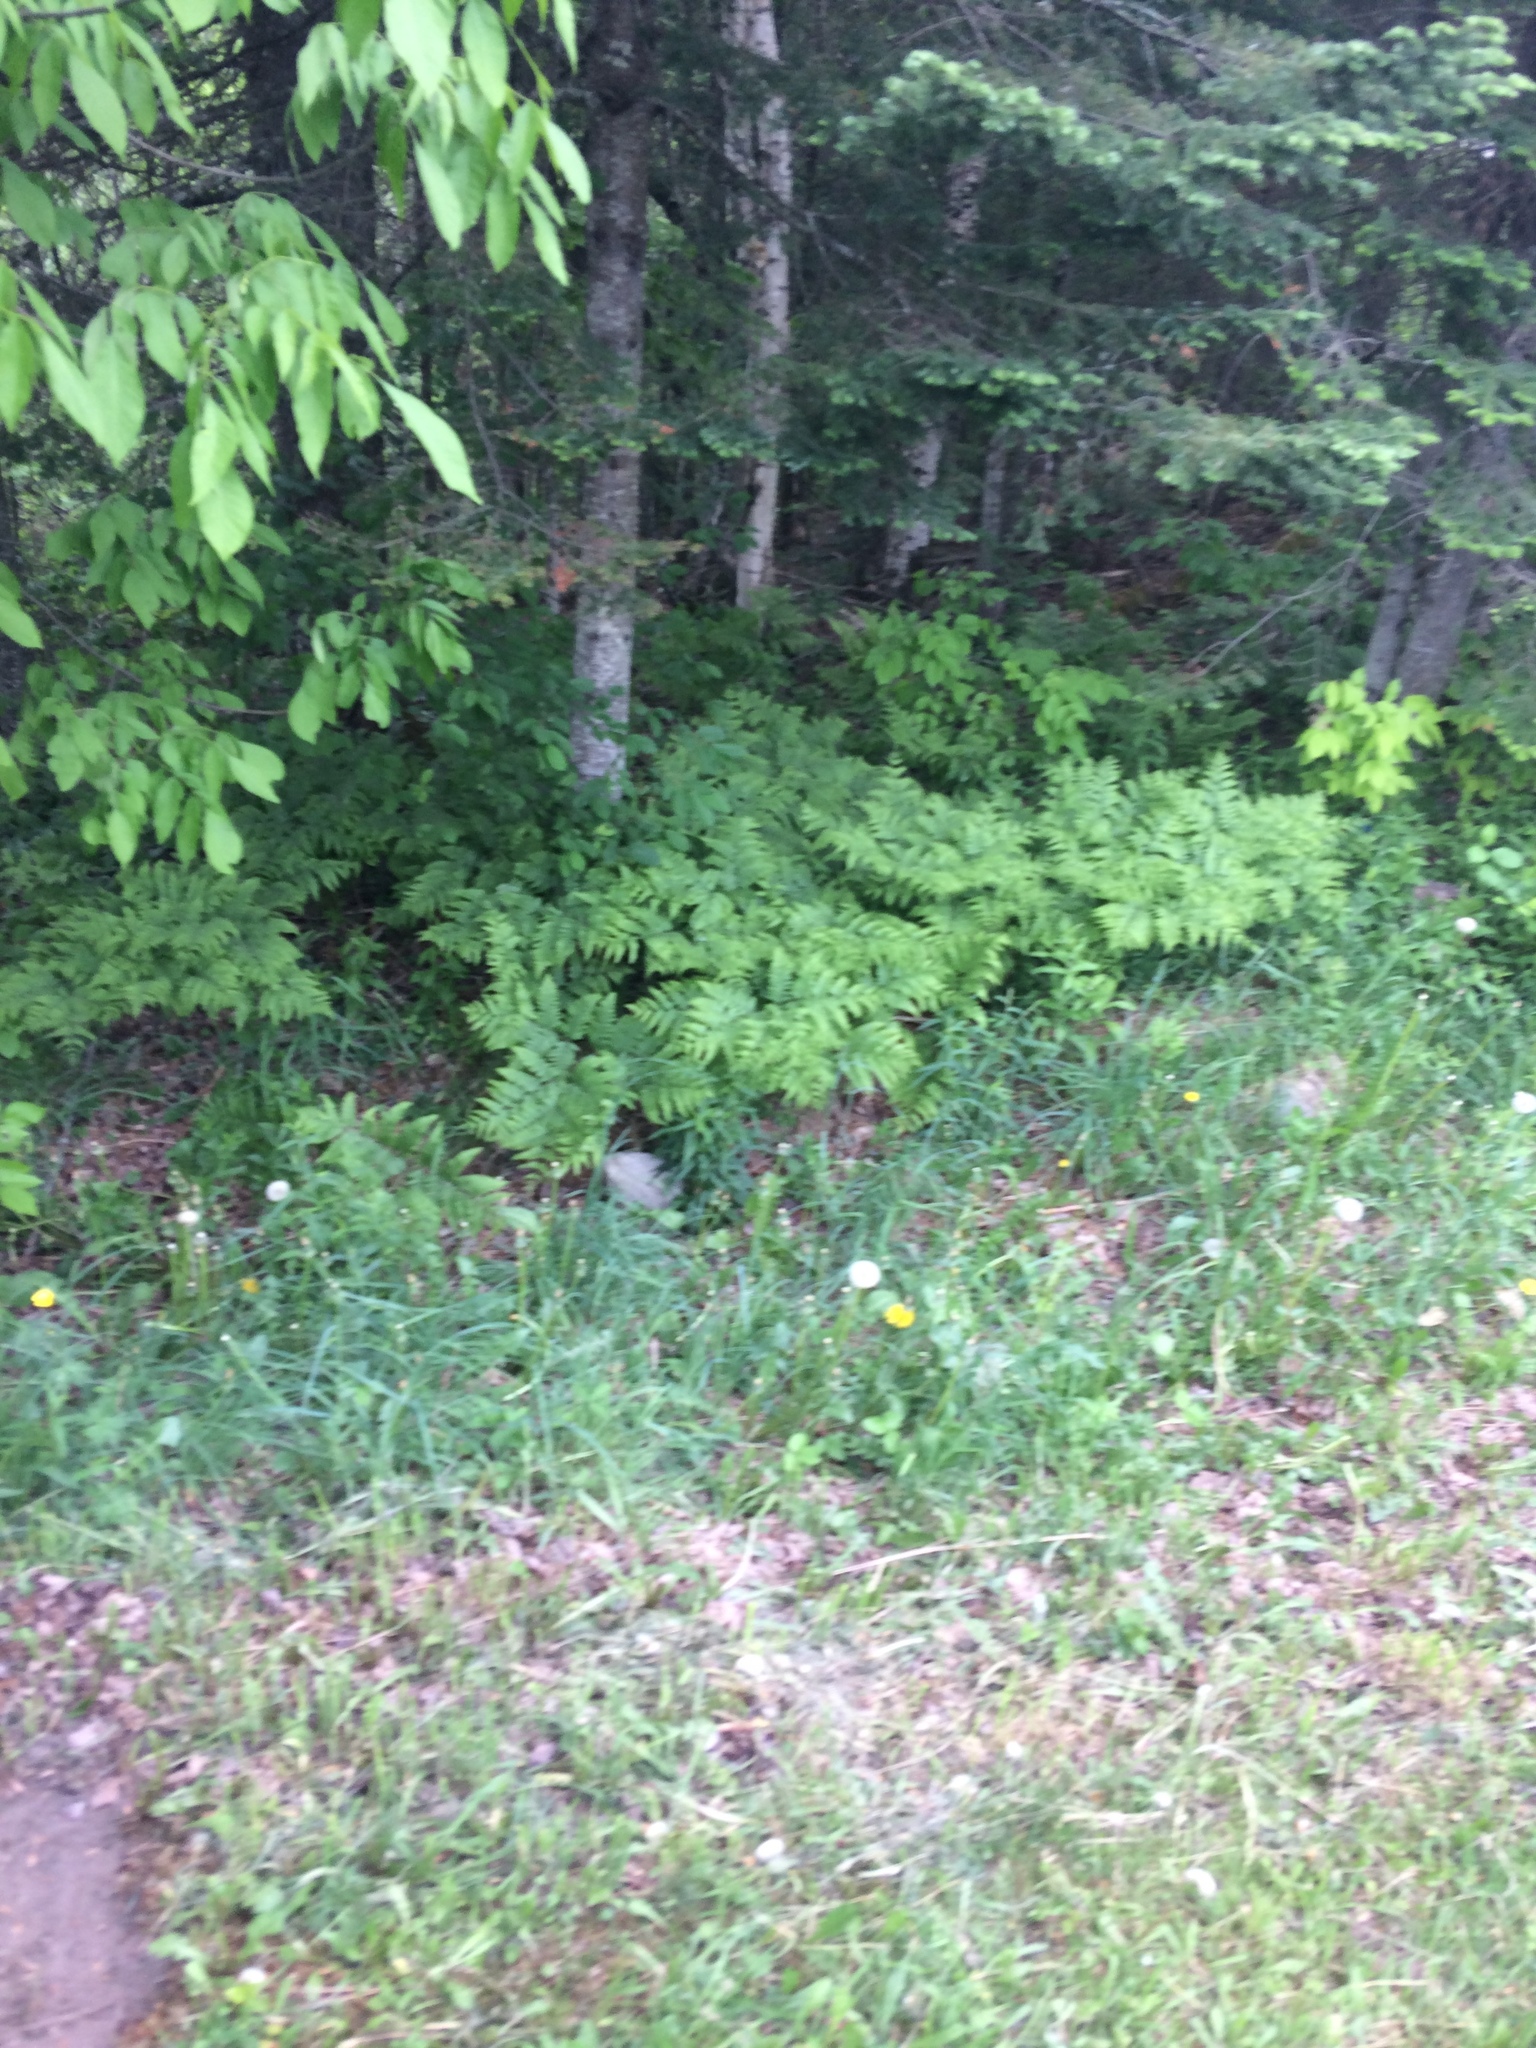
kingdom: Plantae
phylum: Tracheophyta
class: Polypodiopsida
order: Polypodiales
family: Dennstaedtiaceae
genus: Pteridium
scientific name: Pteridium aquilinum
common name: Bracken
